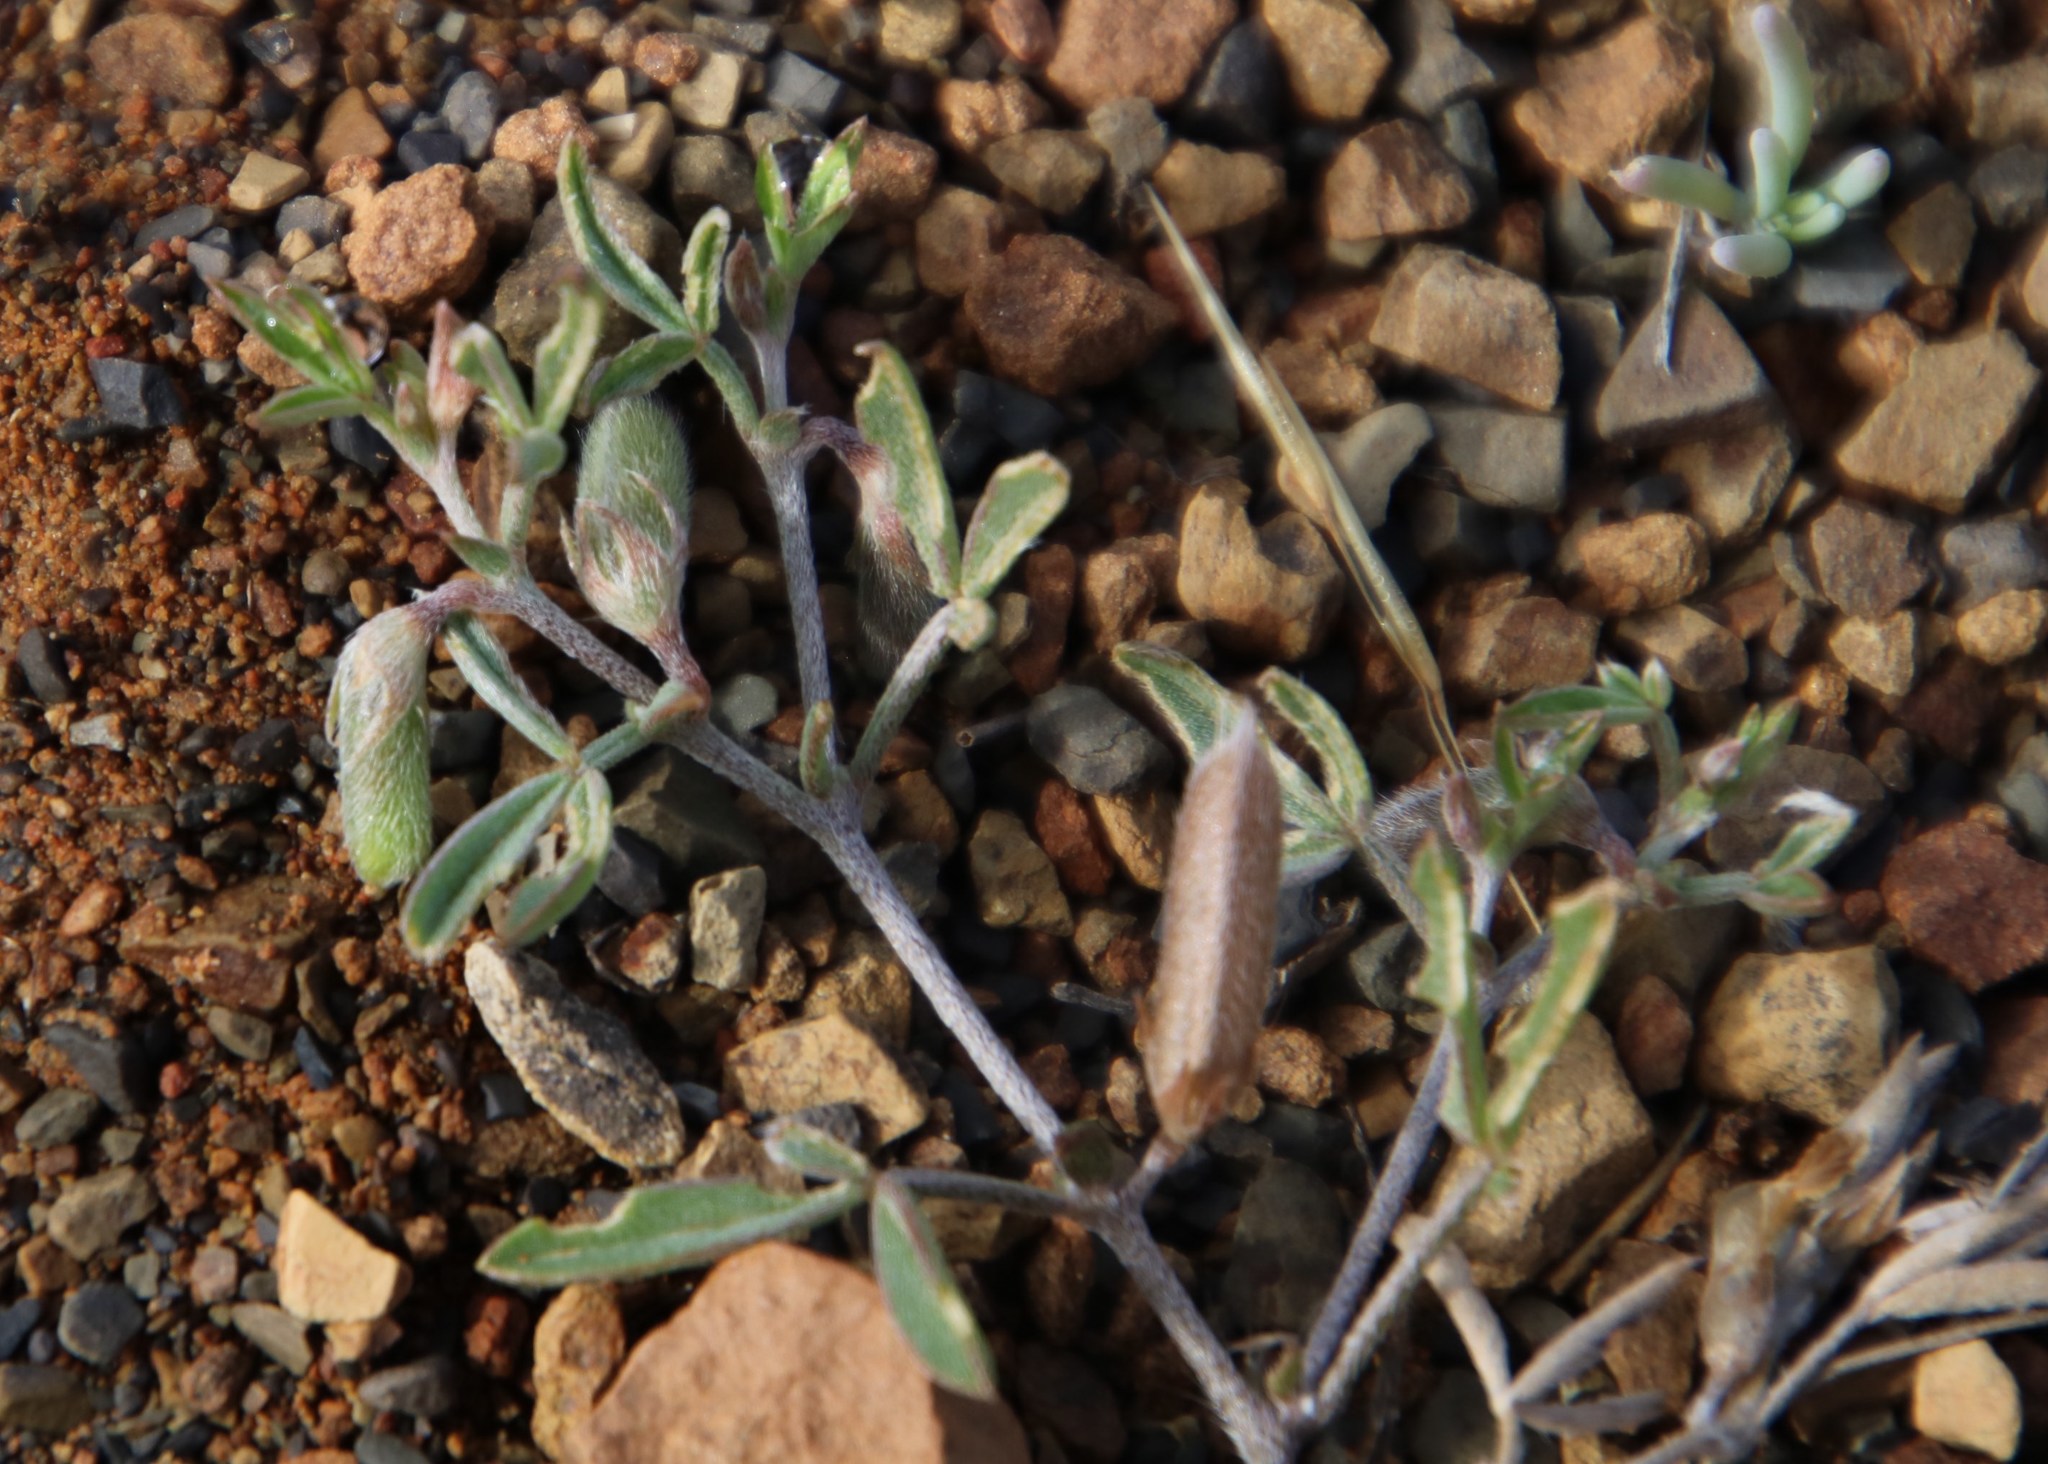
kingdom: Plantae
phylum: Tracheophyta
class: Magnoliopsida
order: Fabales
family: Fabaceae
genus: Lotononis
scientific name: Lotononis pungens
